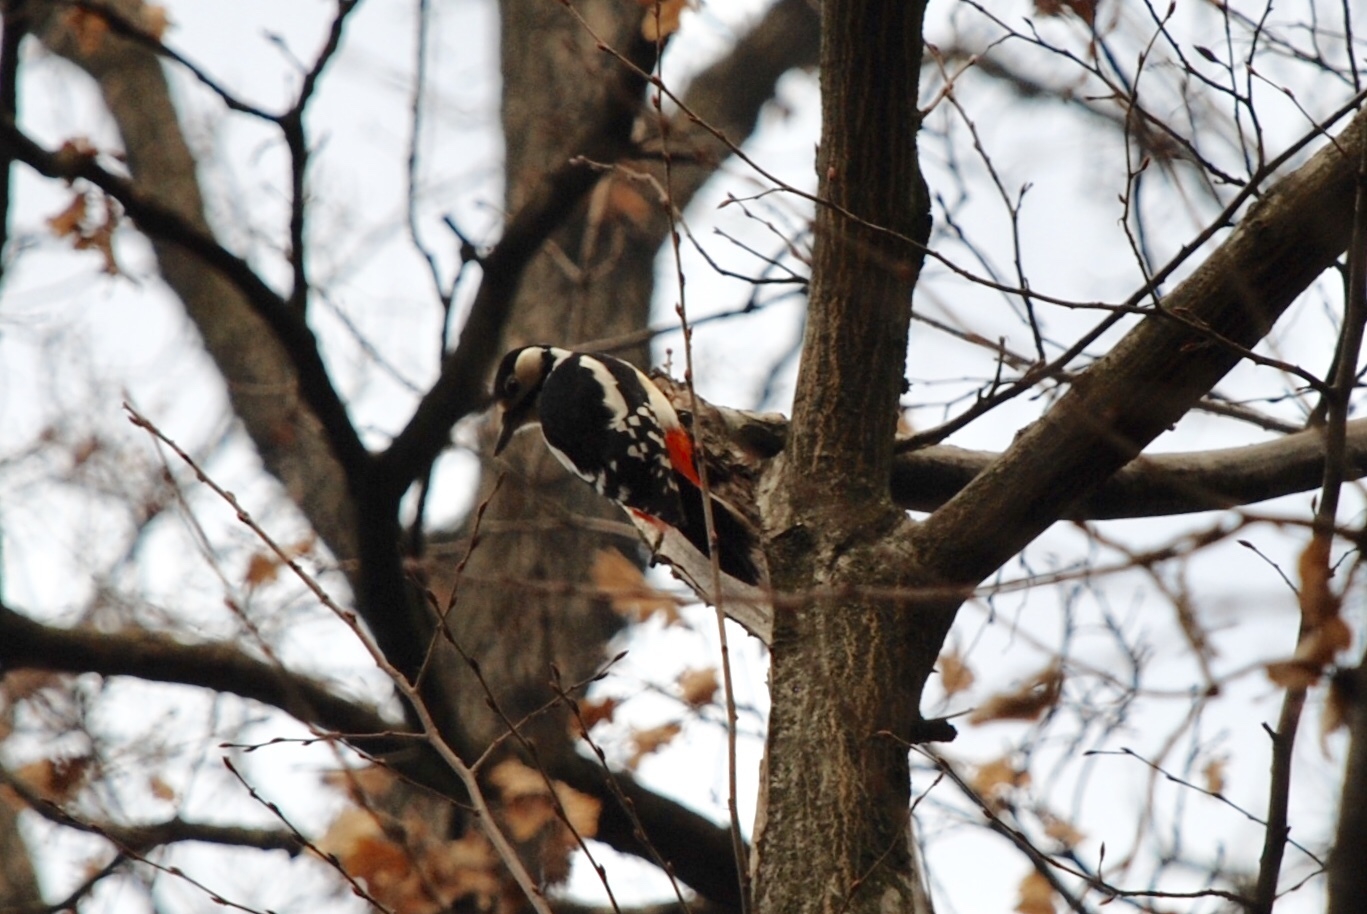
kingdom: Animalia
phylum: Chordata
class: Aves
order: Piciformes
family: Picidae
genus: Dendrocopos
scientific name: Dendrocopos major
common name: Great spotted woodpecker
